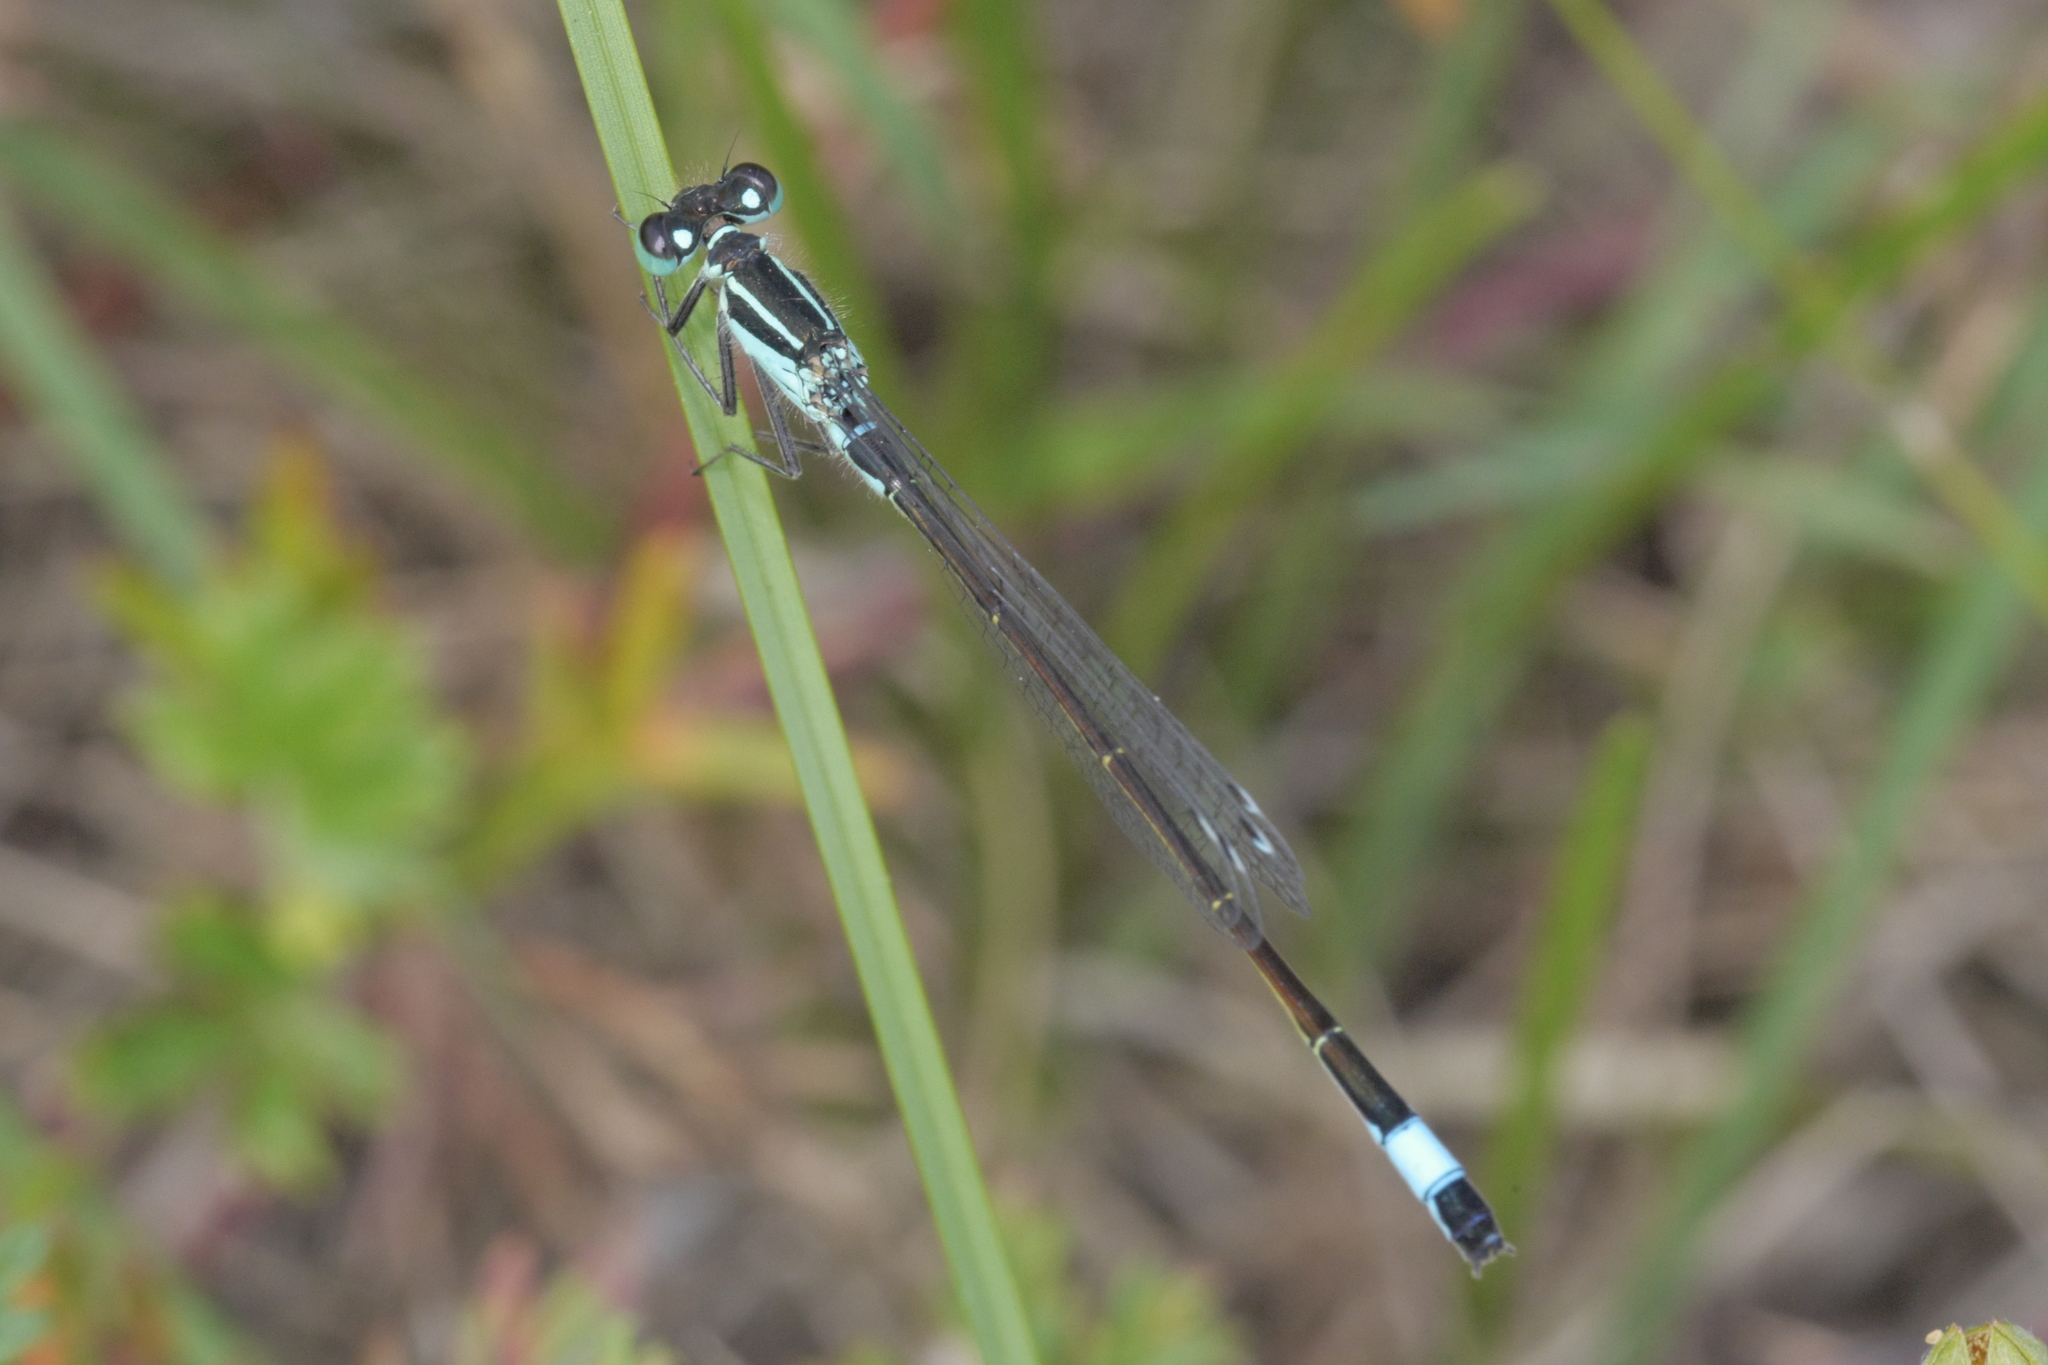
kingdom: Animalia
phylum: Arthropoda
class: Insecta
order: Odonata
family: Coenagrionidae
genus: Ischnura
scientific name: Ischnura elegans
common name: Blue-tailed damselfly
